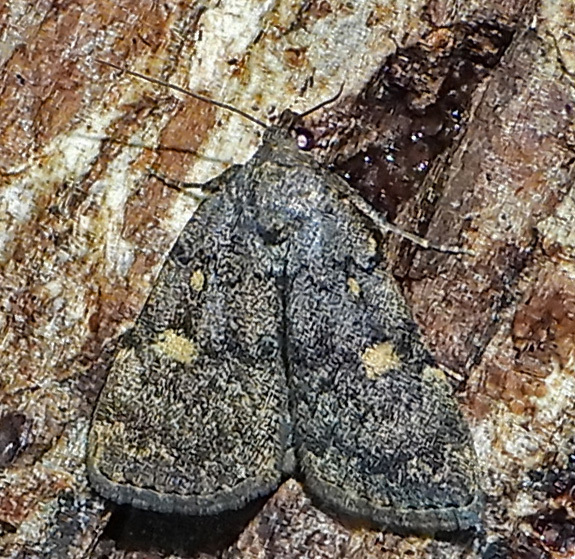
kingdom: Animalia
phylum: Arthropoda
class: Insecta
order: Lepidoptera
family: Erebidae
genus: Idia
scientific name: Idia aemula
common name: Common idia moth
